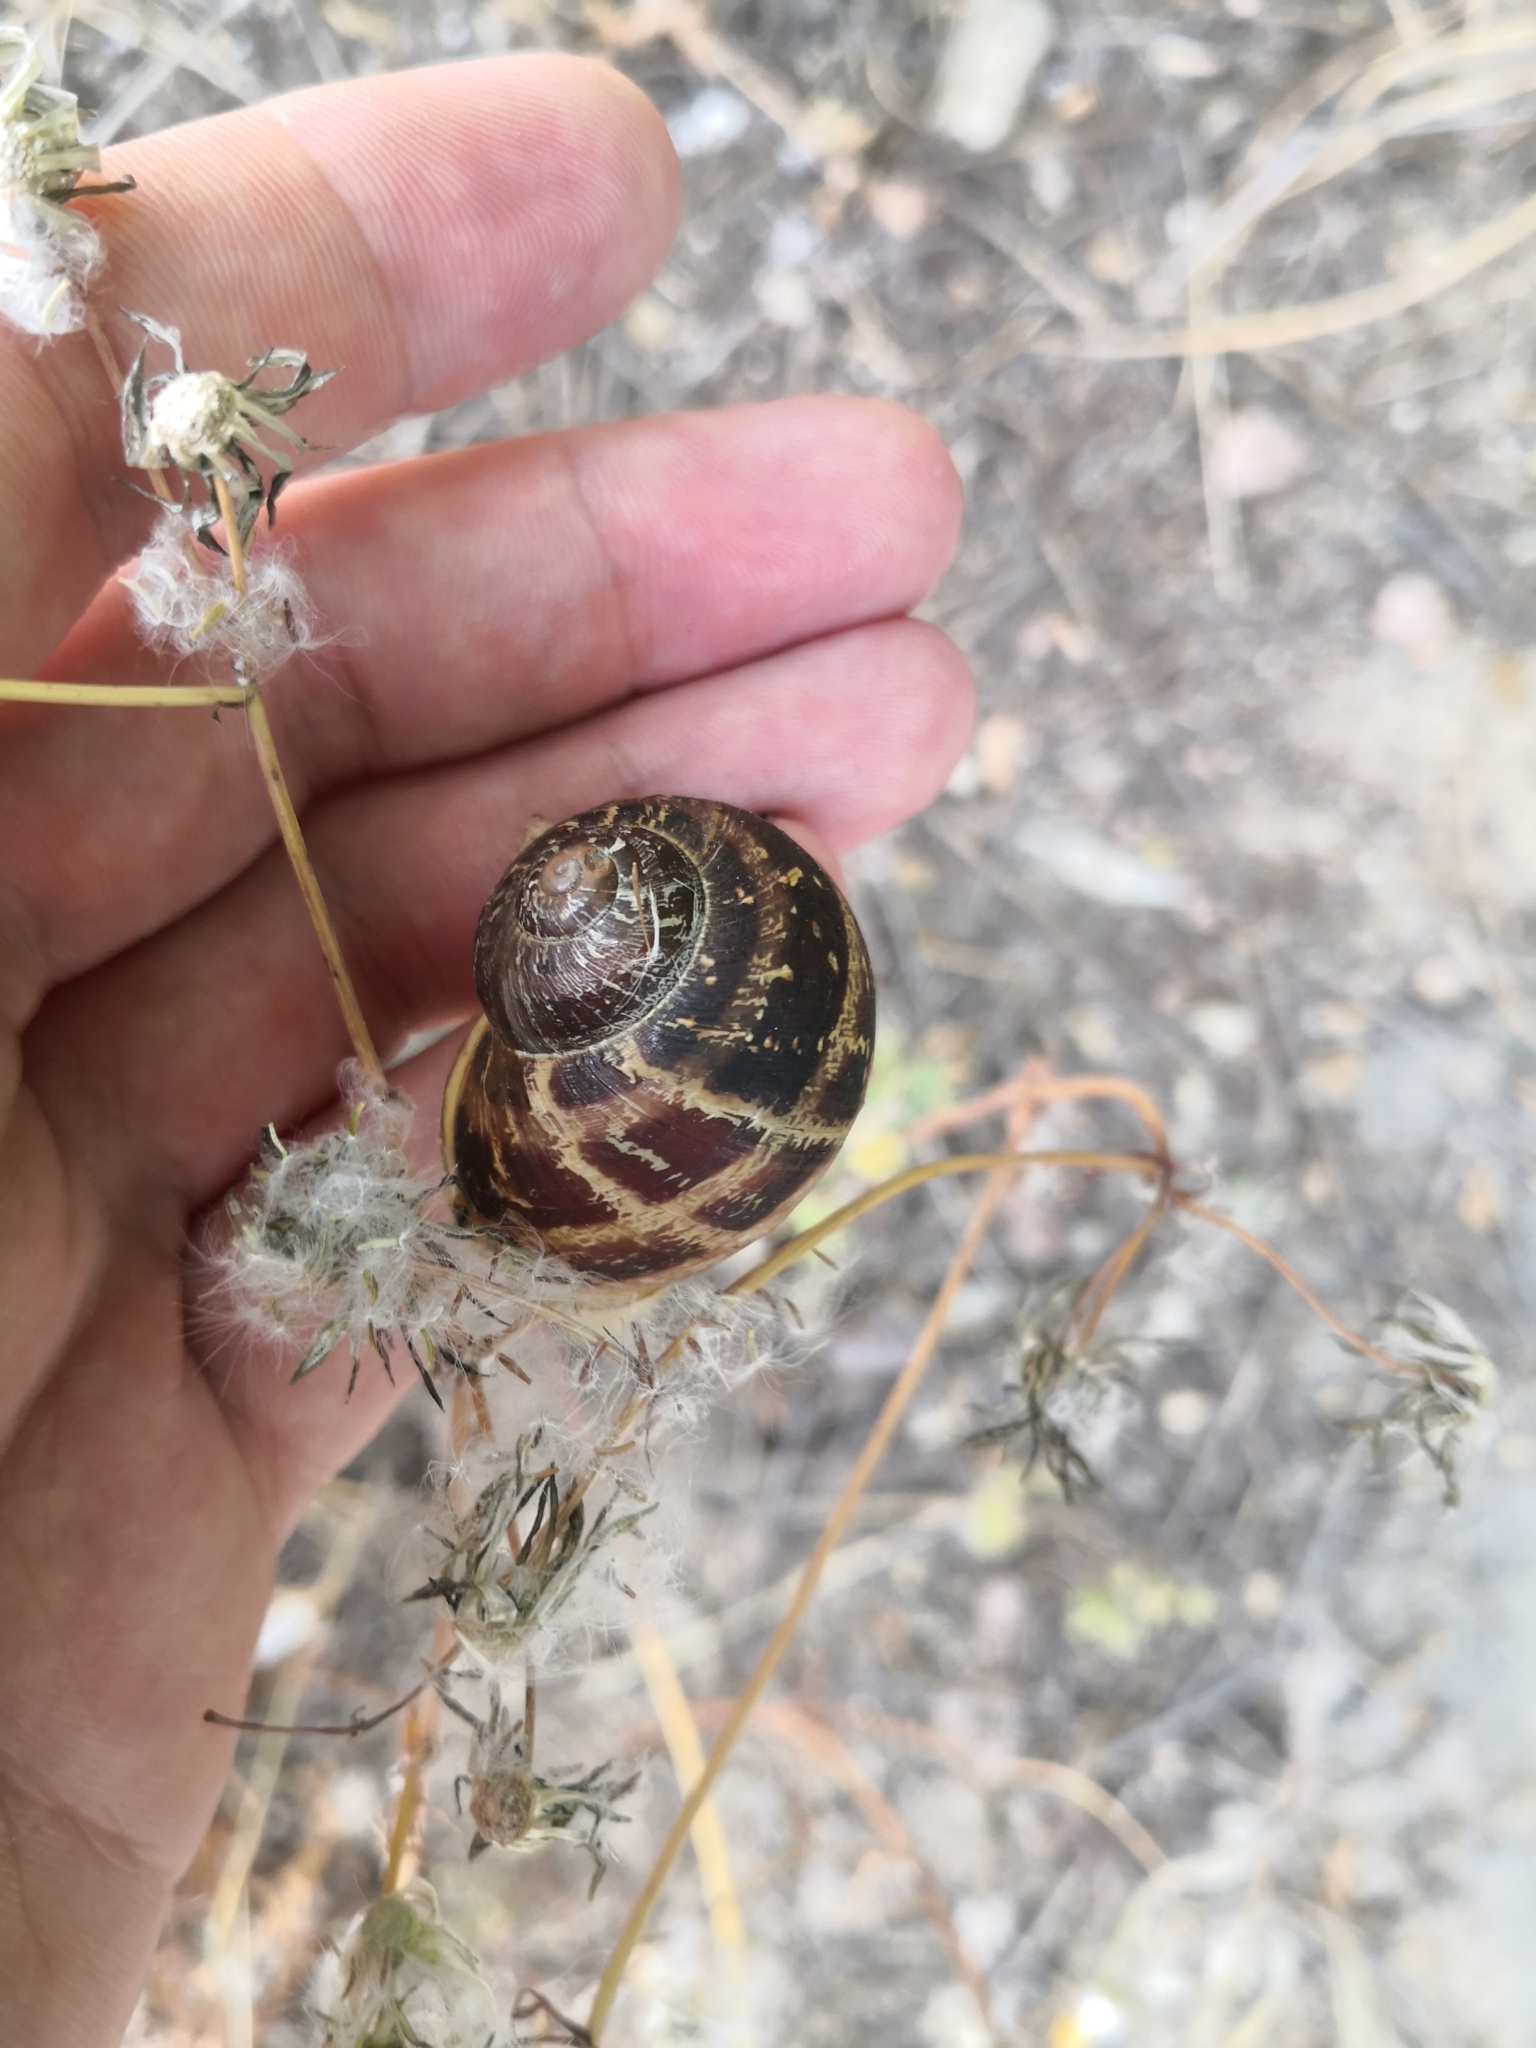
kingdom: Animalia
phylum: Mollusca
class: Gastropoda
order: Stylommatophora
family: Helicidae
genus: Cornu
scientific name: Cornu aspersum
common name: Brown garden snail
